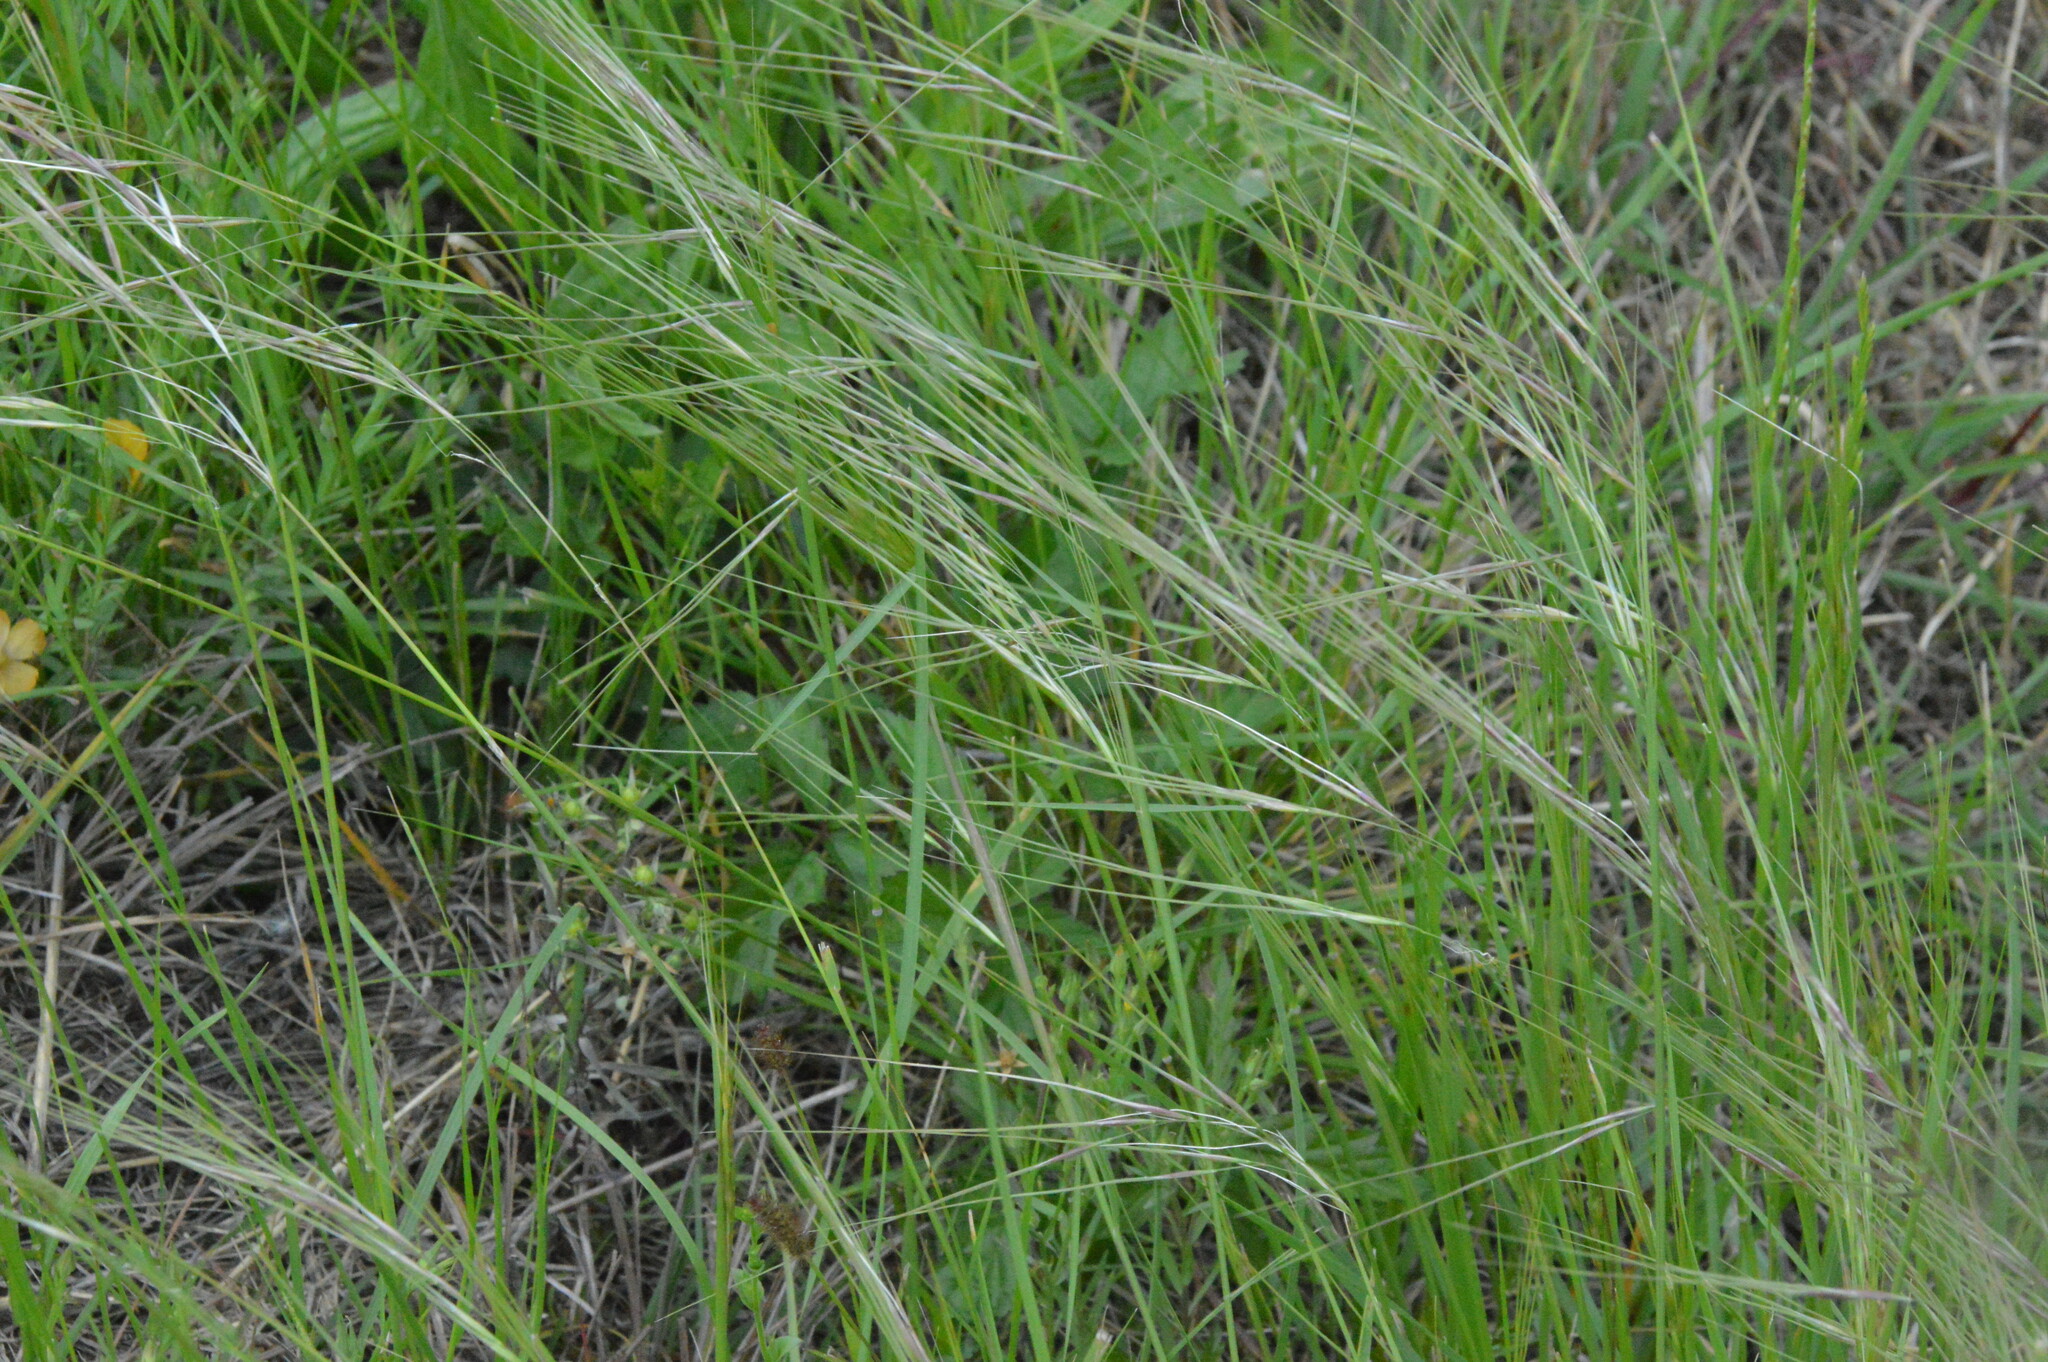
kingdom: Plantae
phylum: Tracheophyta
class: Liliopsida
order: Poales
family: Poaceae
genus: Nassella
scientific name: Nassella leucotricha
